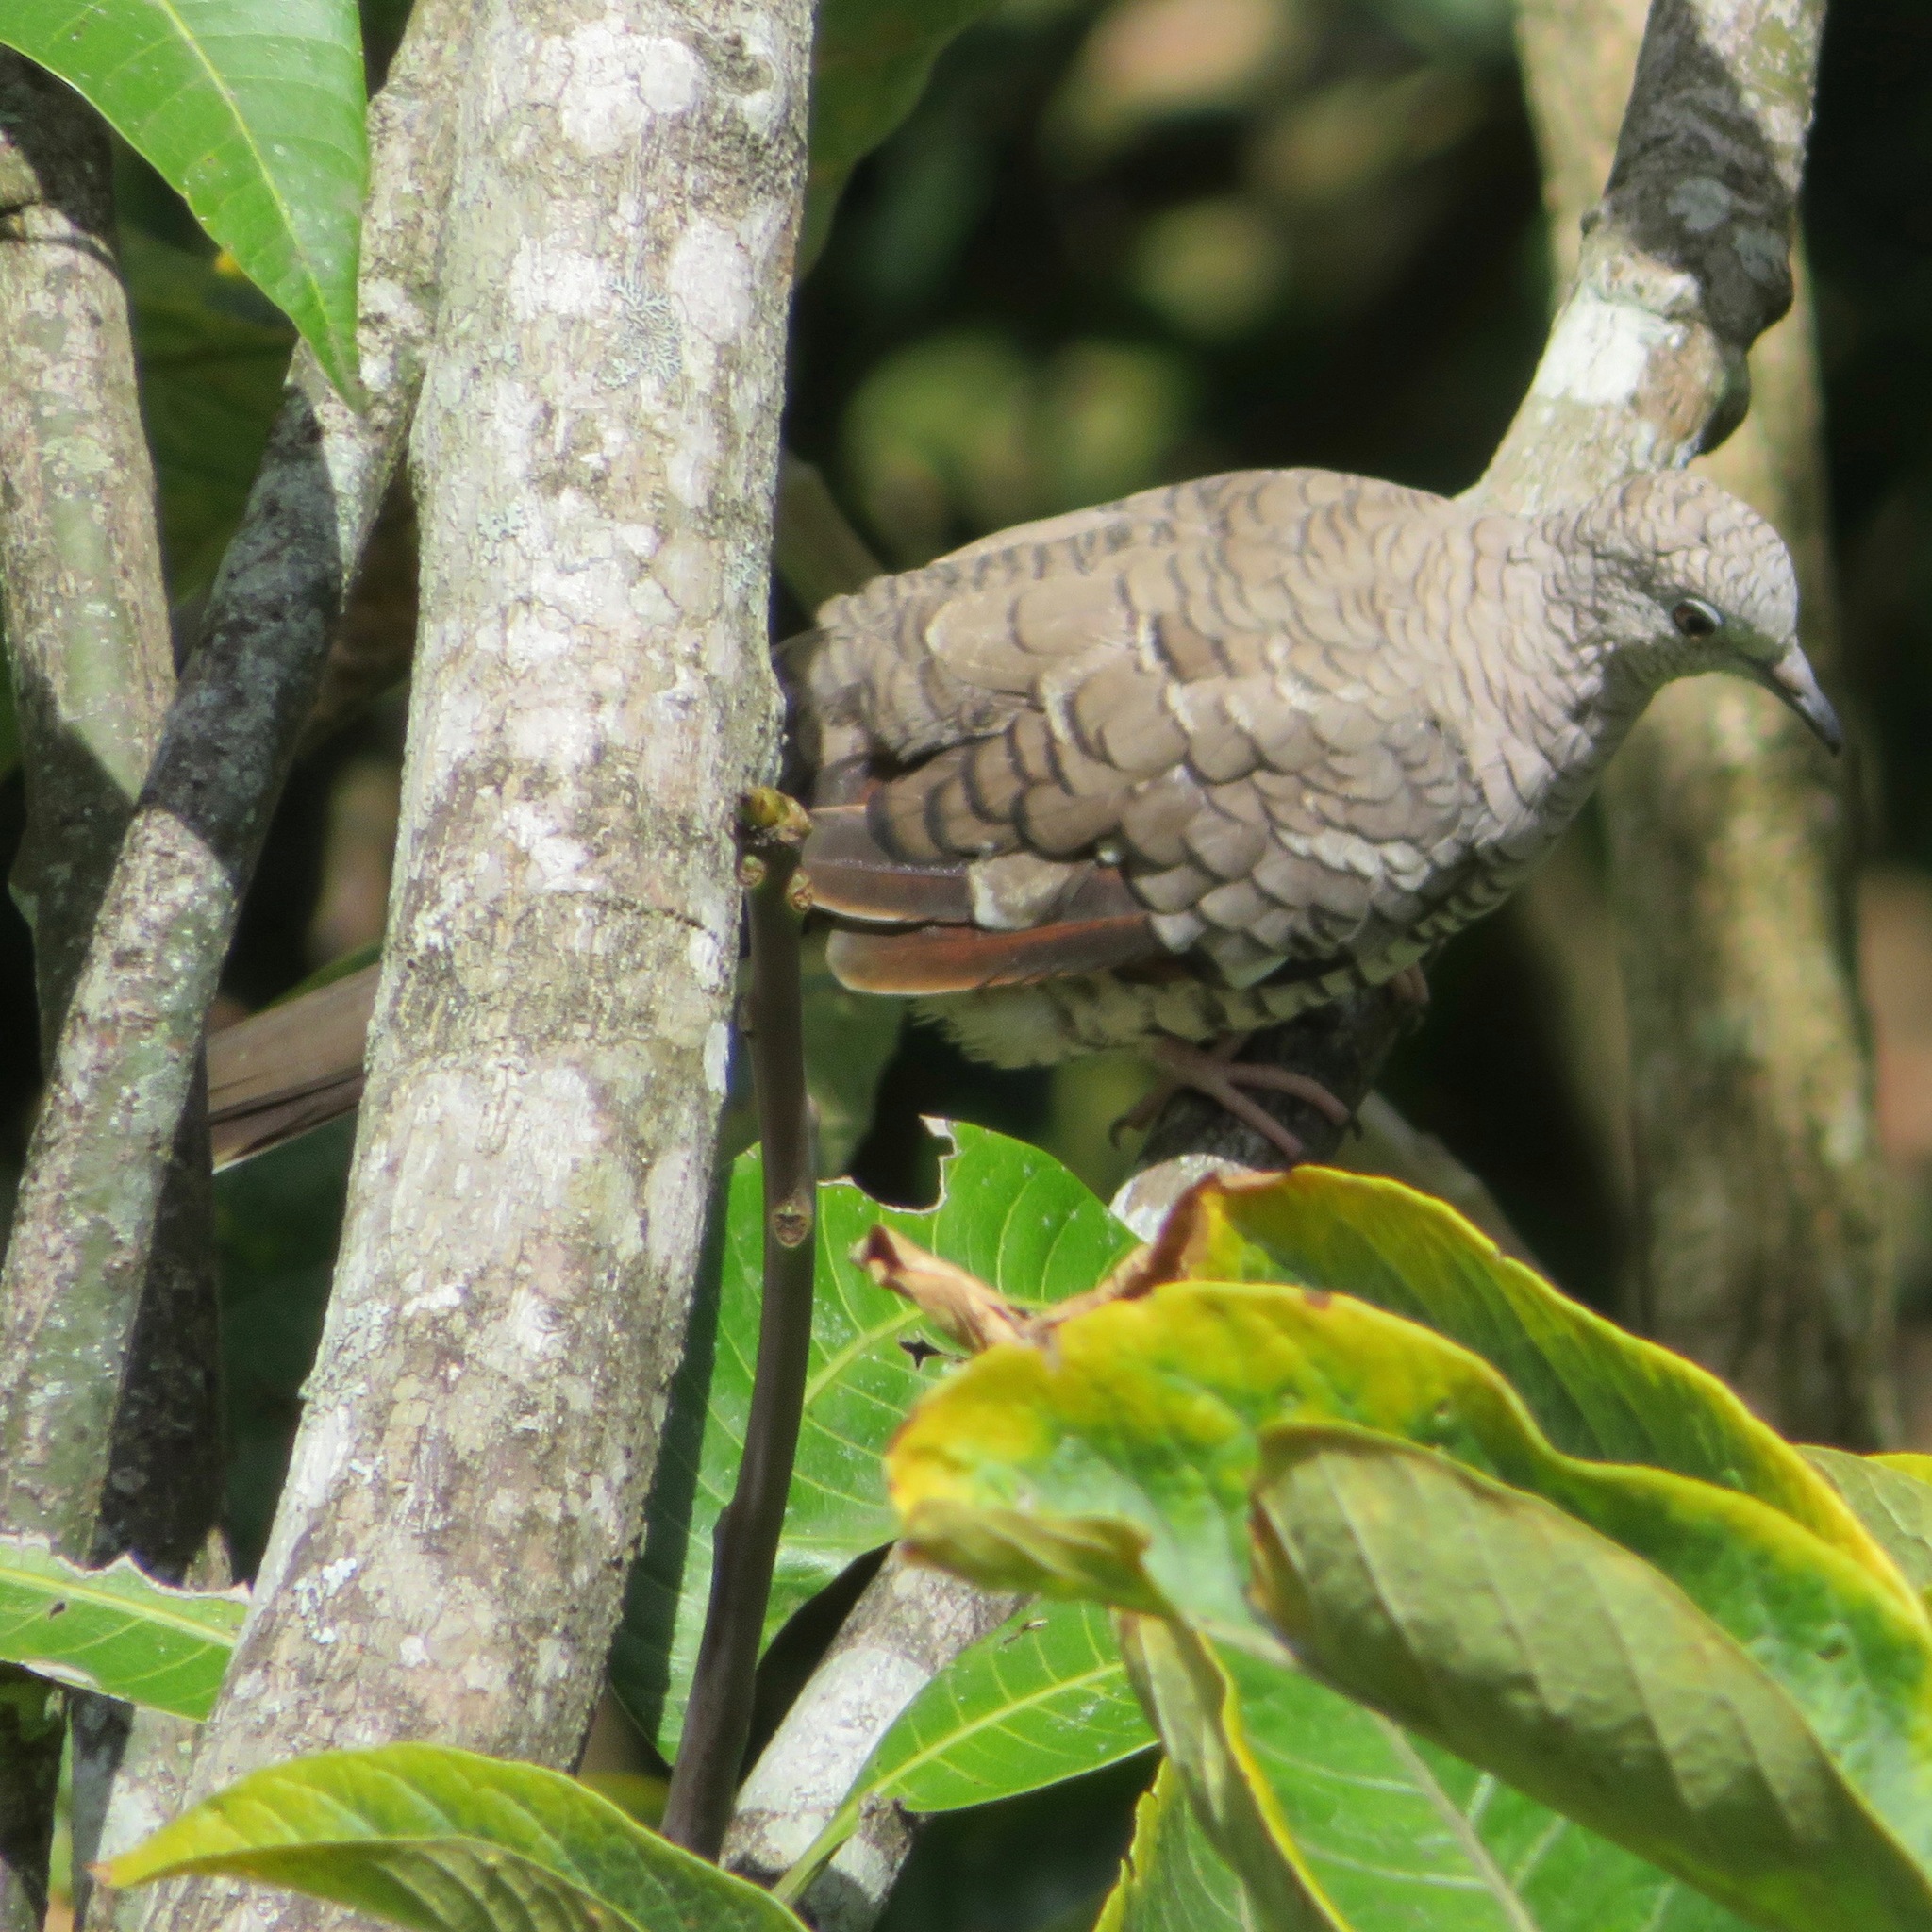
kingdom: Animalia
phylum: Chordata
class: Aves
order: Columbiformes
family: Columbidae
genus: Columbina
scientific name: Columbina inca
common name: Inca dove
